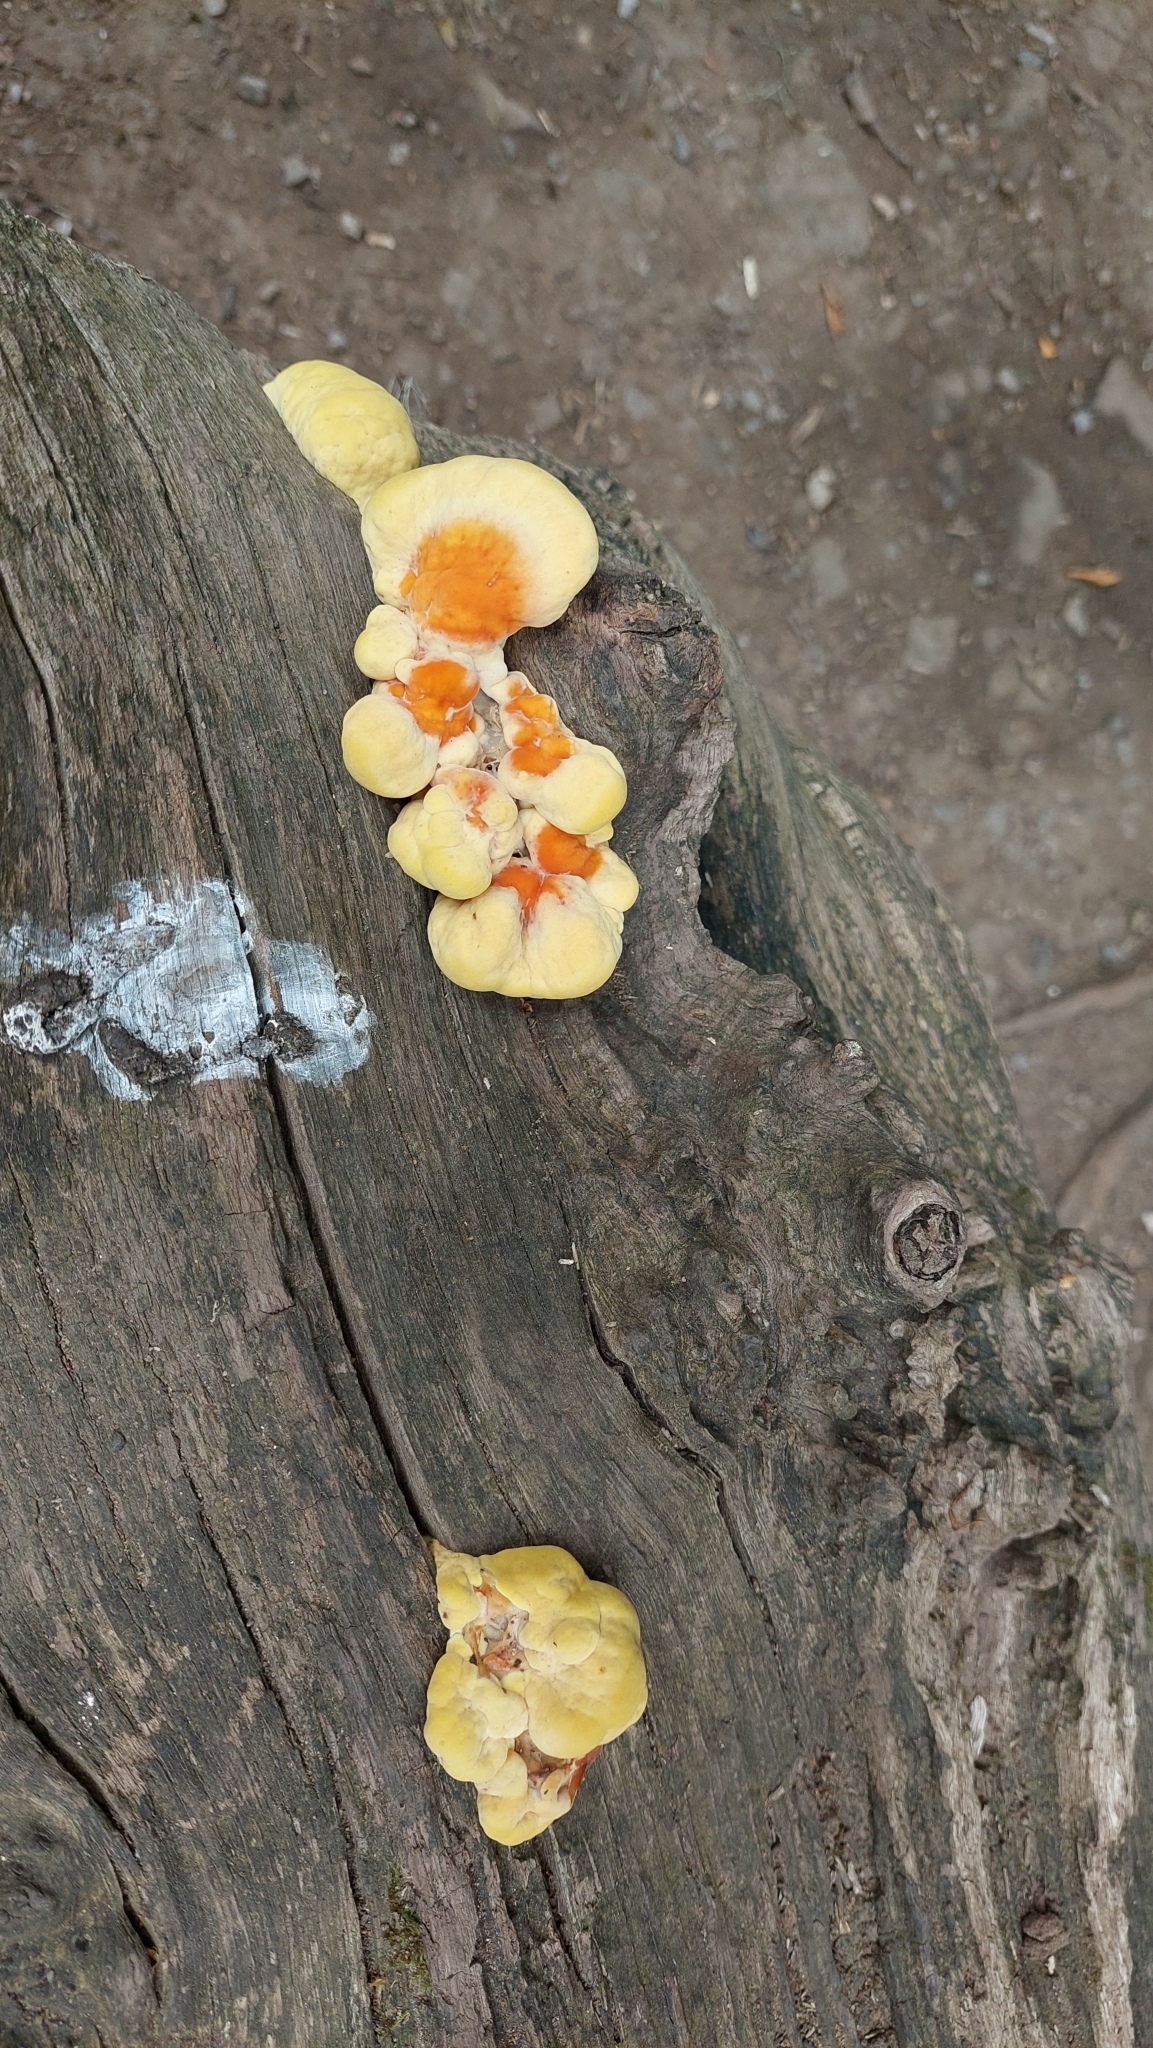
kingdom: Fungi
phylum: Basidiomycota
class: Agaricomycetes
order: Polyporales
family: Laetiporaceae
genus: Laetiporus
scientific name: Laetiporus sulphureus
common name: Chicken of the woods
